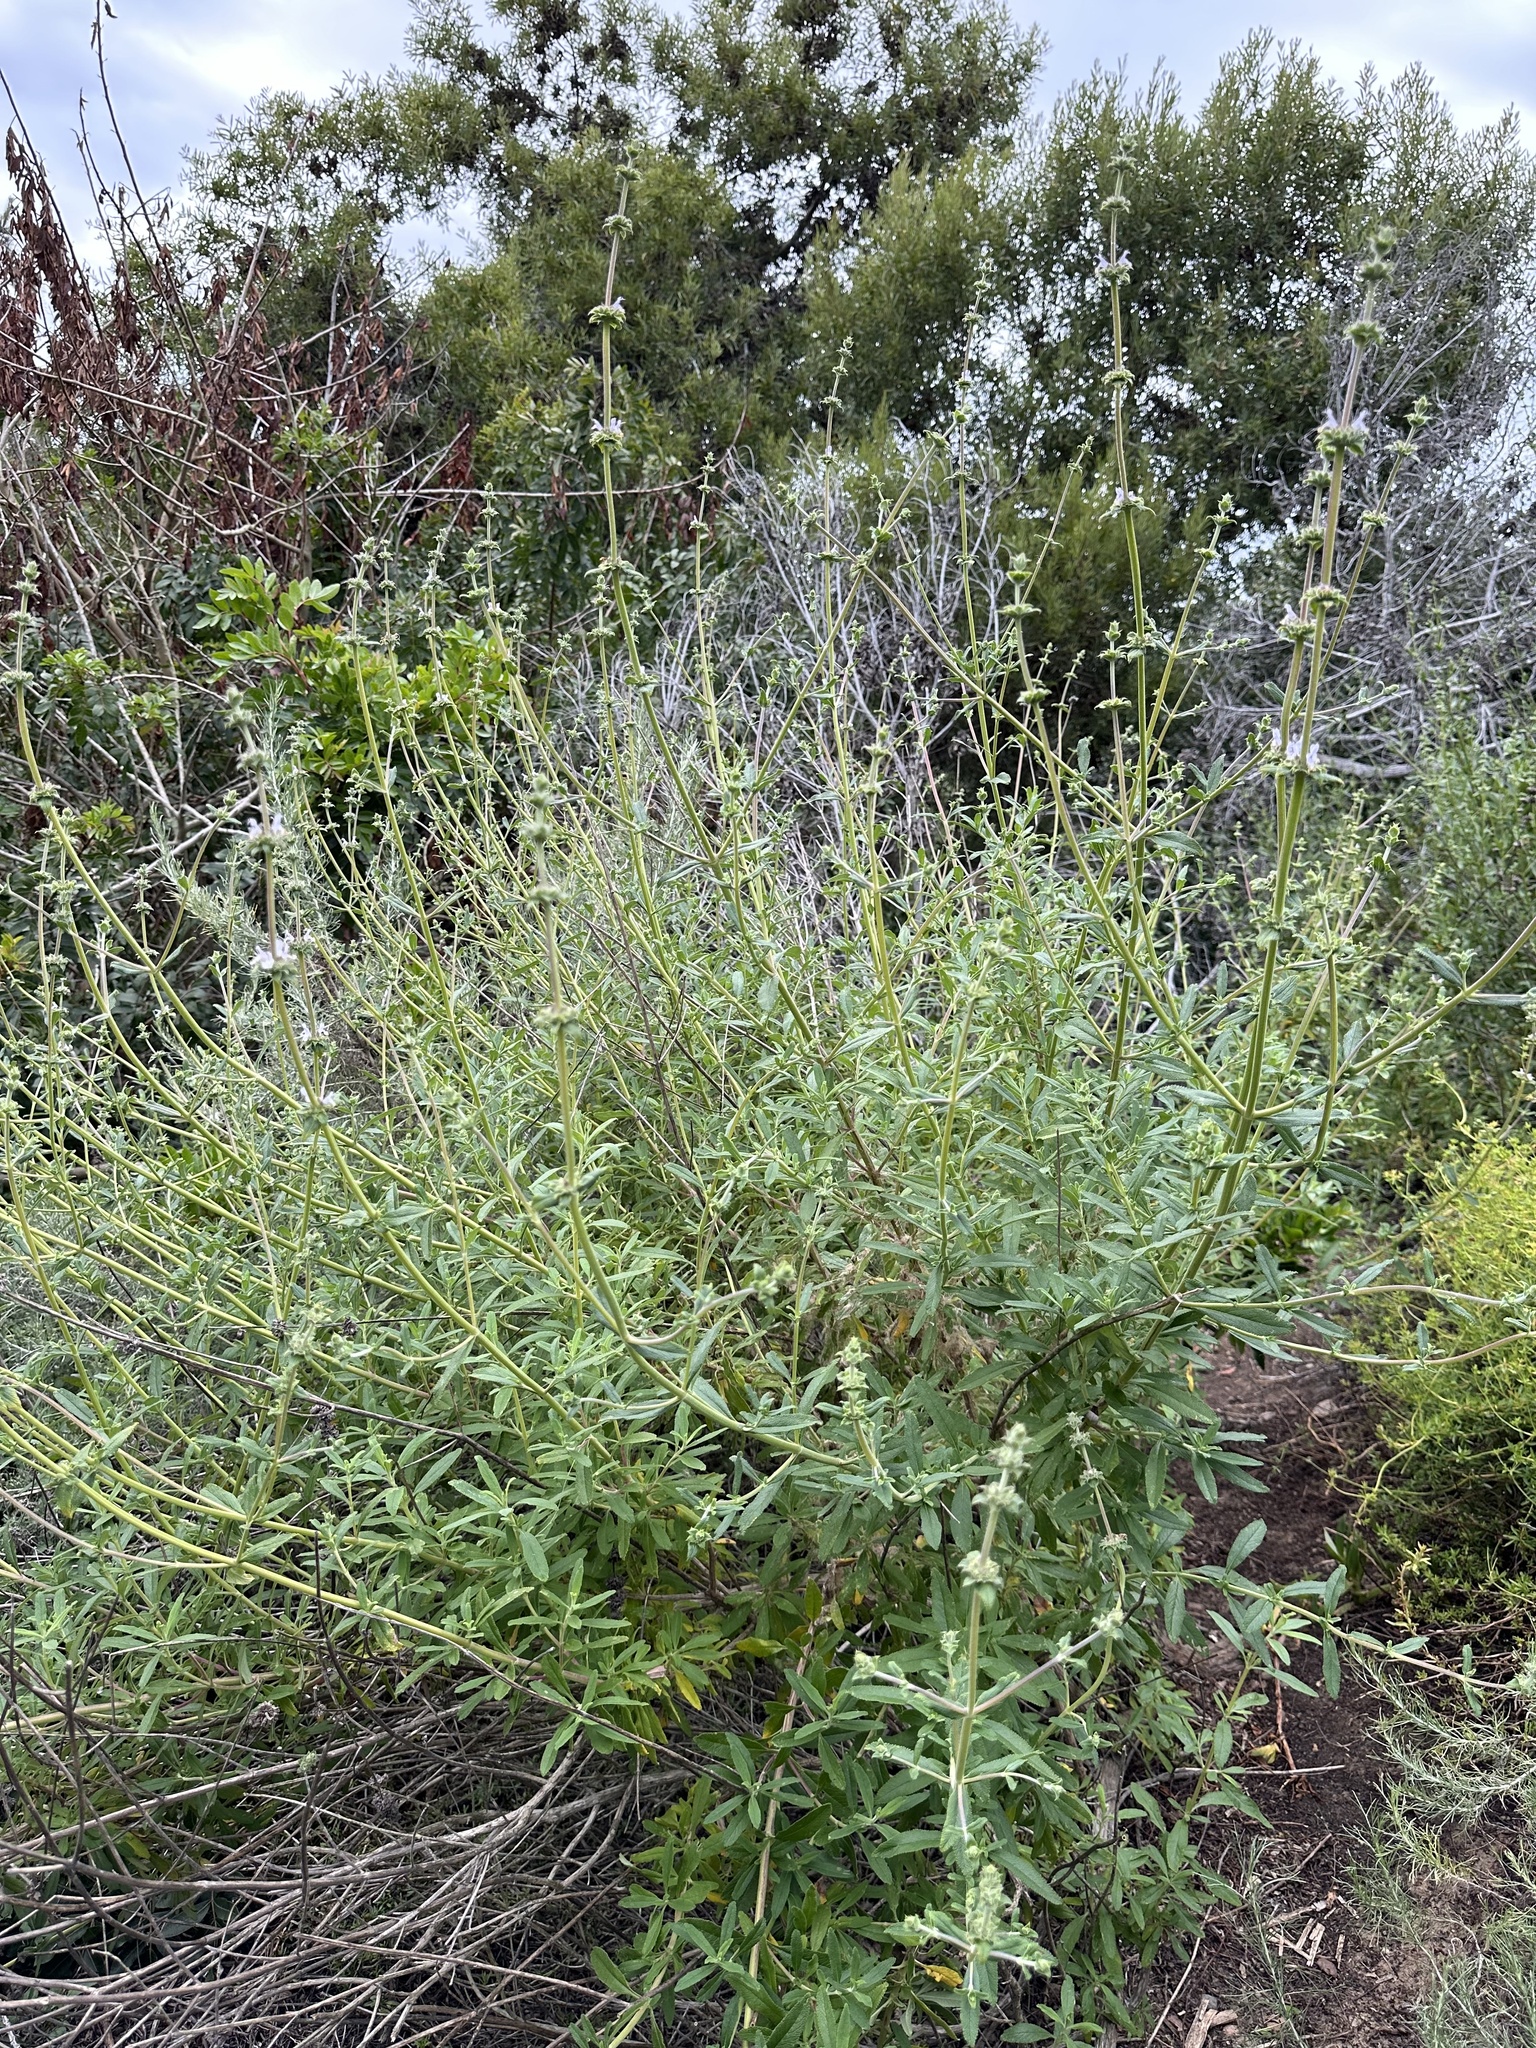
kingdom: Plantae
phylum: Tracheophyta
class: Magnoliopsida
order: Lamiales
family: Lamiaceae
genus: Salvia
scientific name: Salvia mellifera
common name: Black sage
